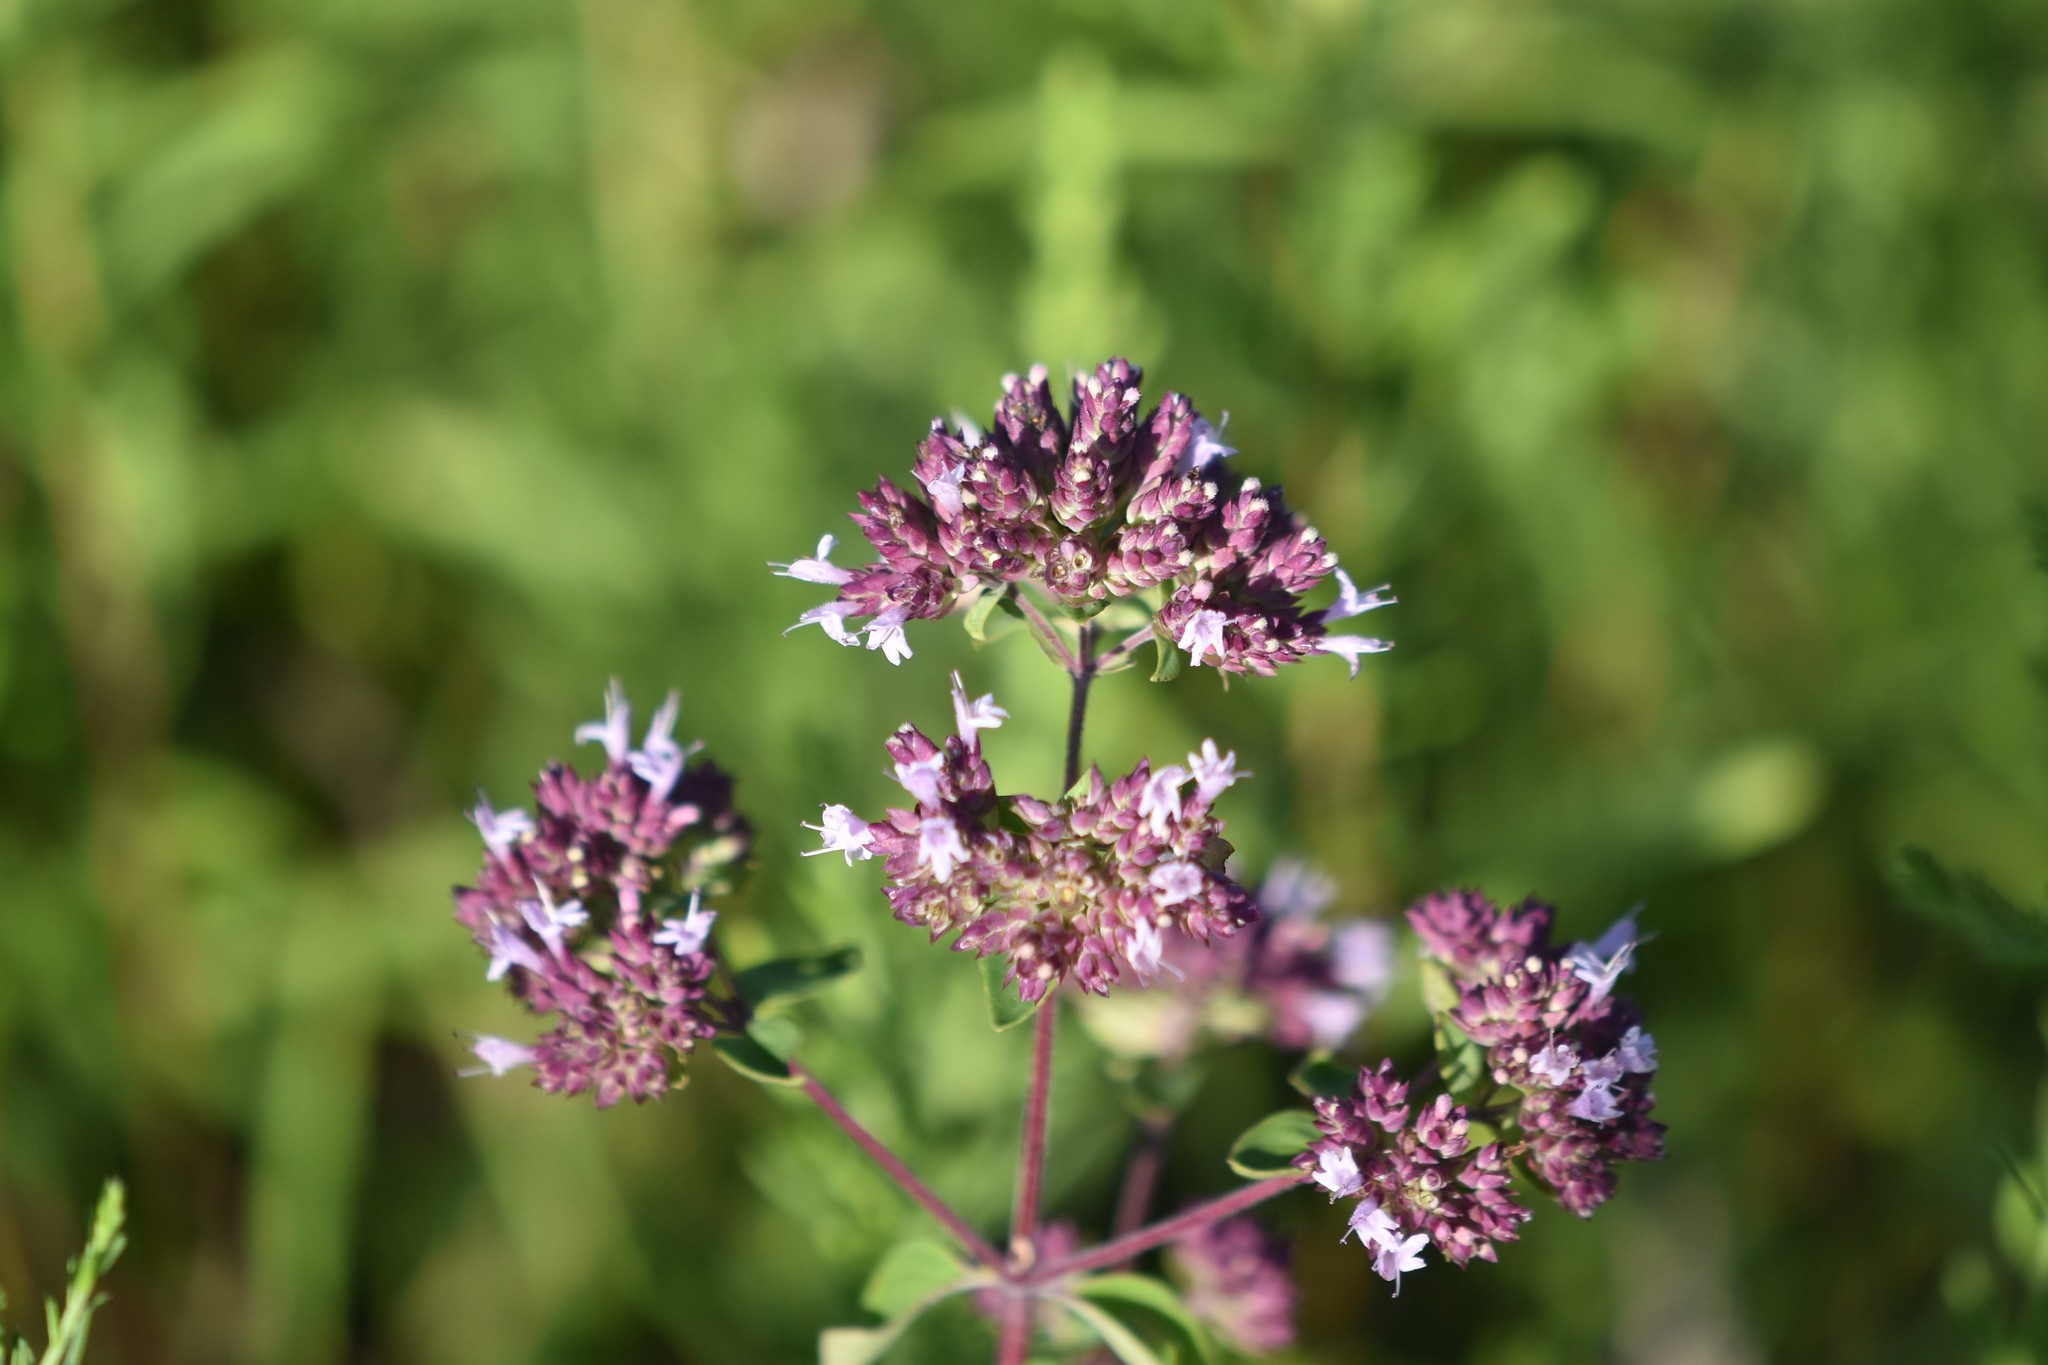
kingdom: Plantae
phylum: Tracheophyta
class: Magnoliopsida
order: Lamiales
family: Lamiaceae
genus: Origanum
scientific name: Origanum vulgare
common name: Wild marjoram
